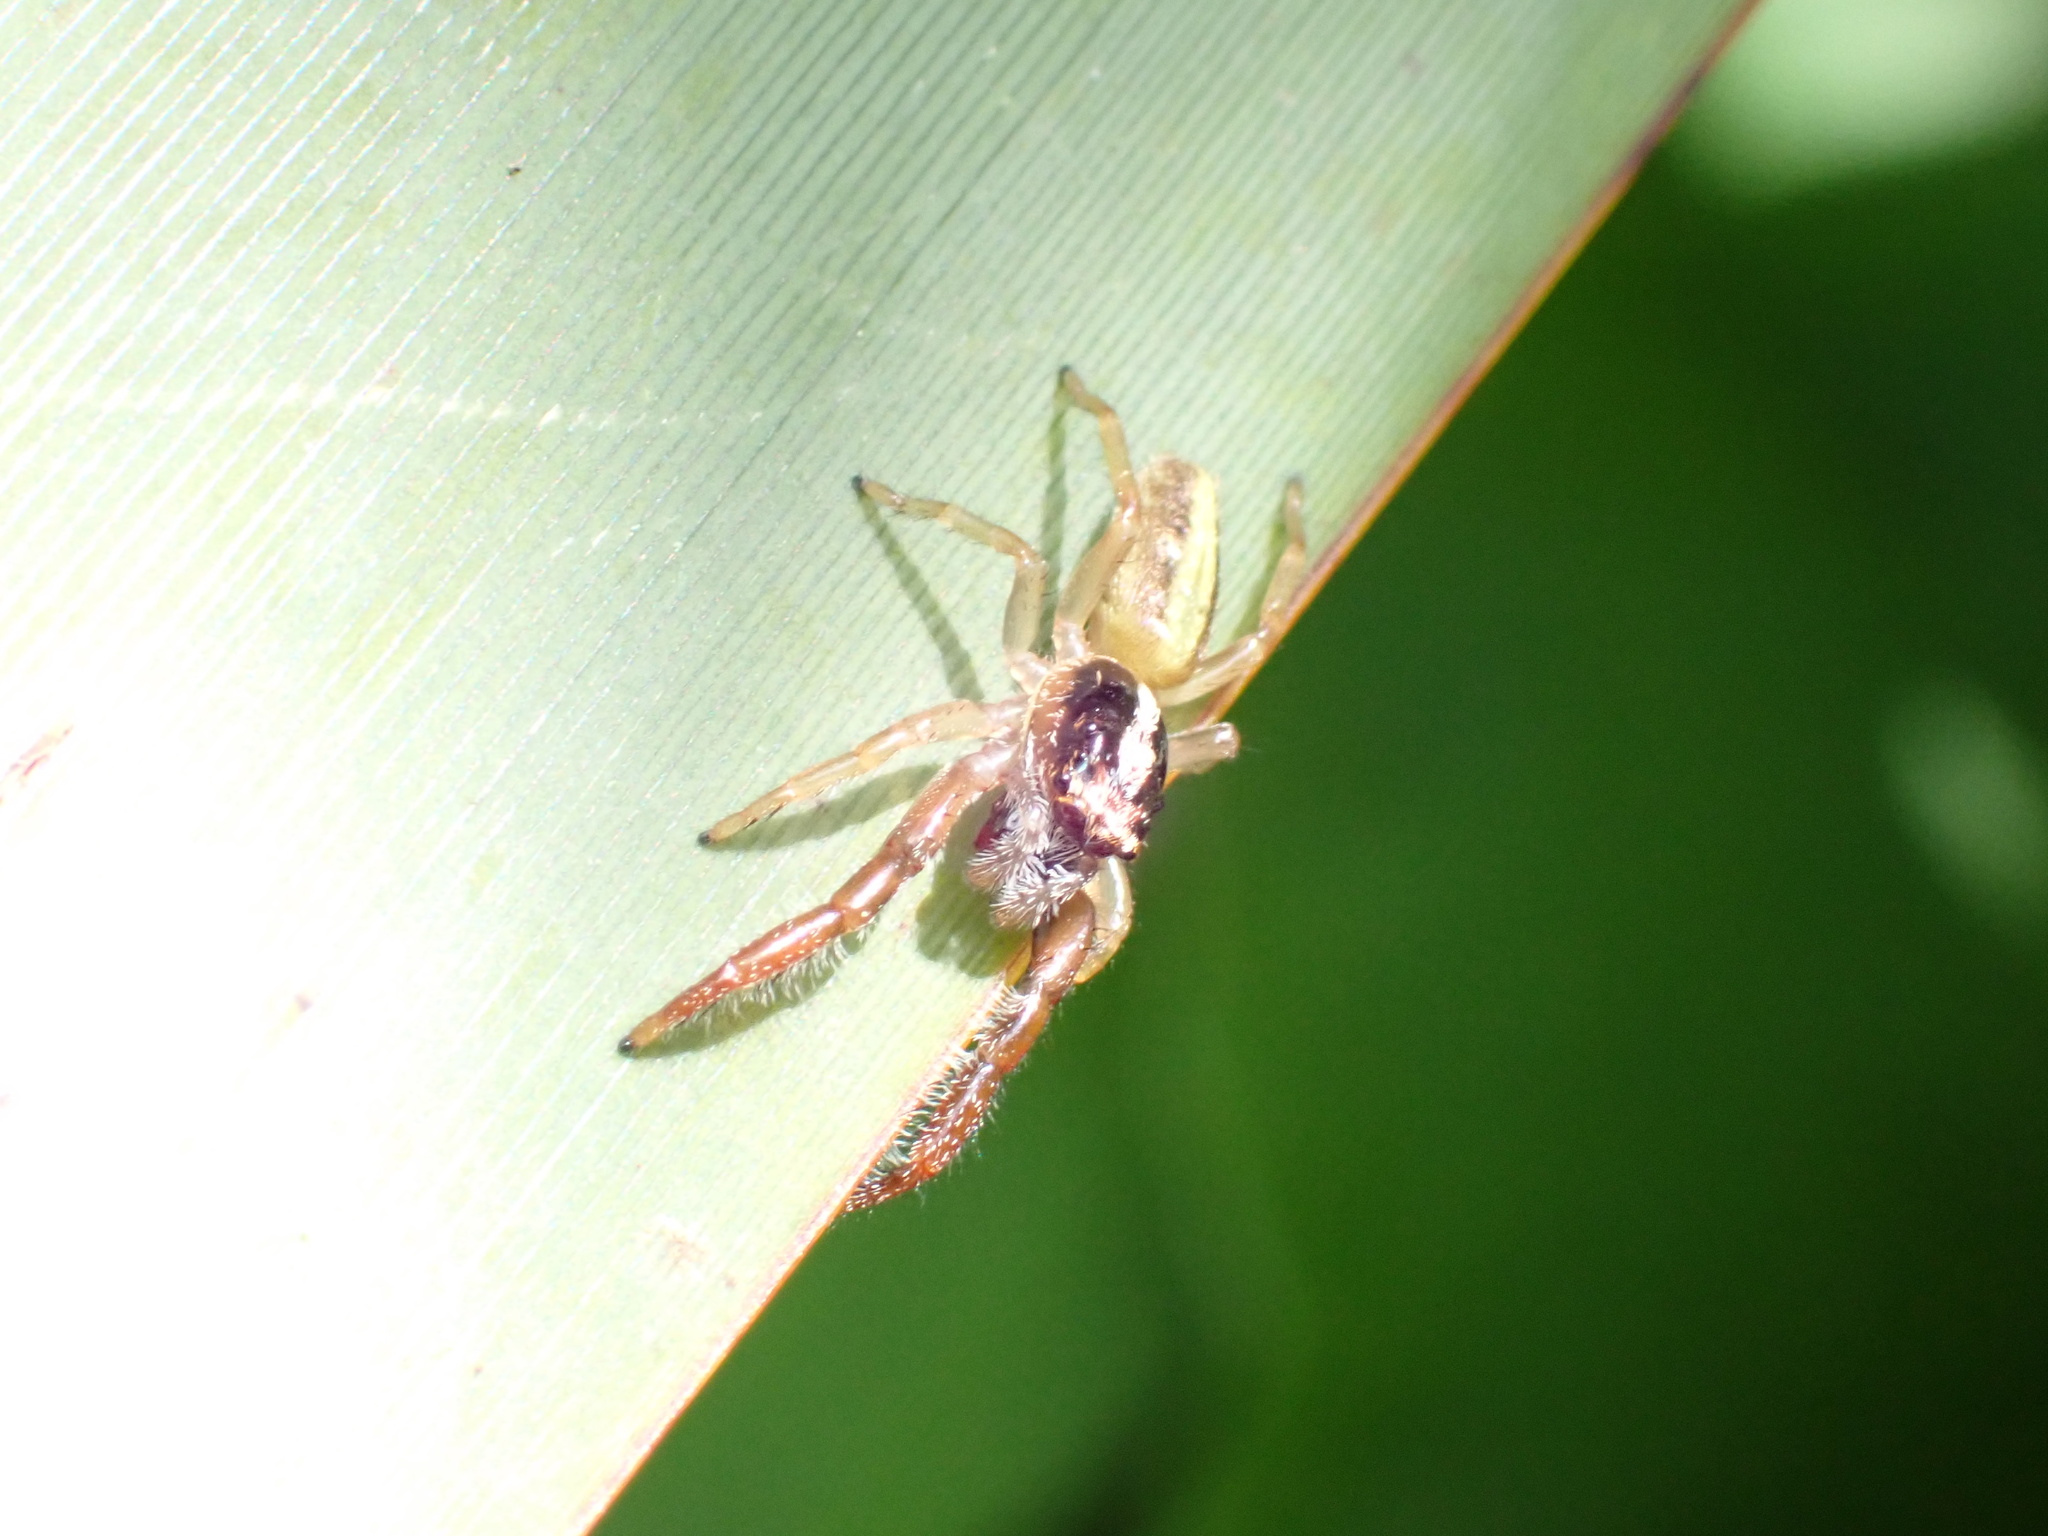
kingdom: Animalia
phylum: Arthropoda
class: Arachnida
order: Araneae
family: Salticidae
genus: Trite
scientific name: Trite planiceps
